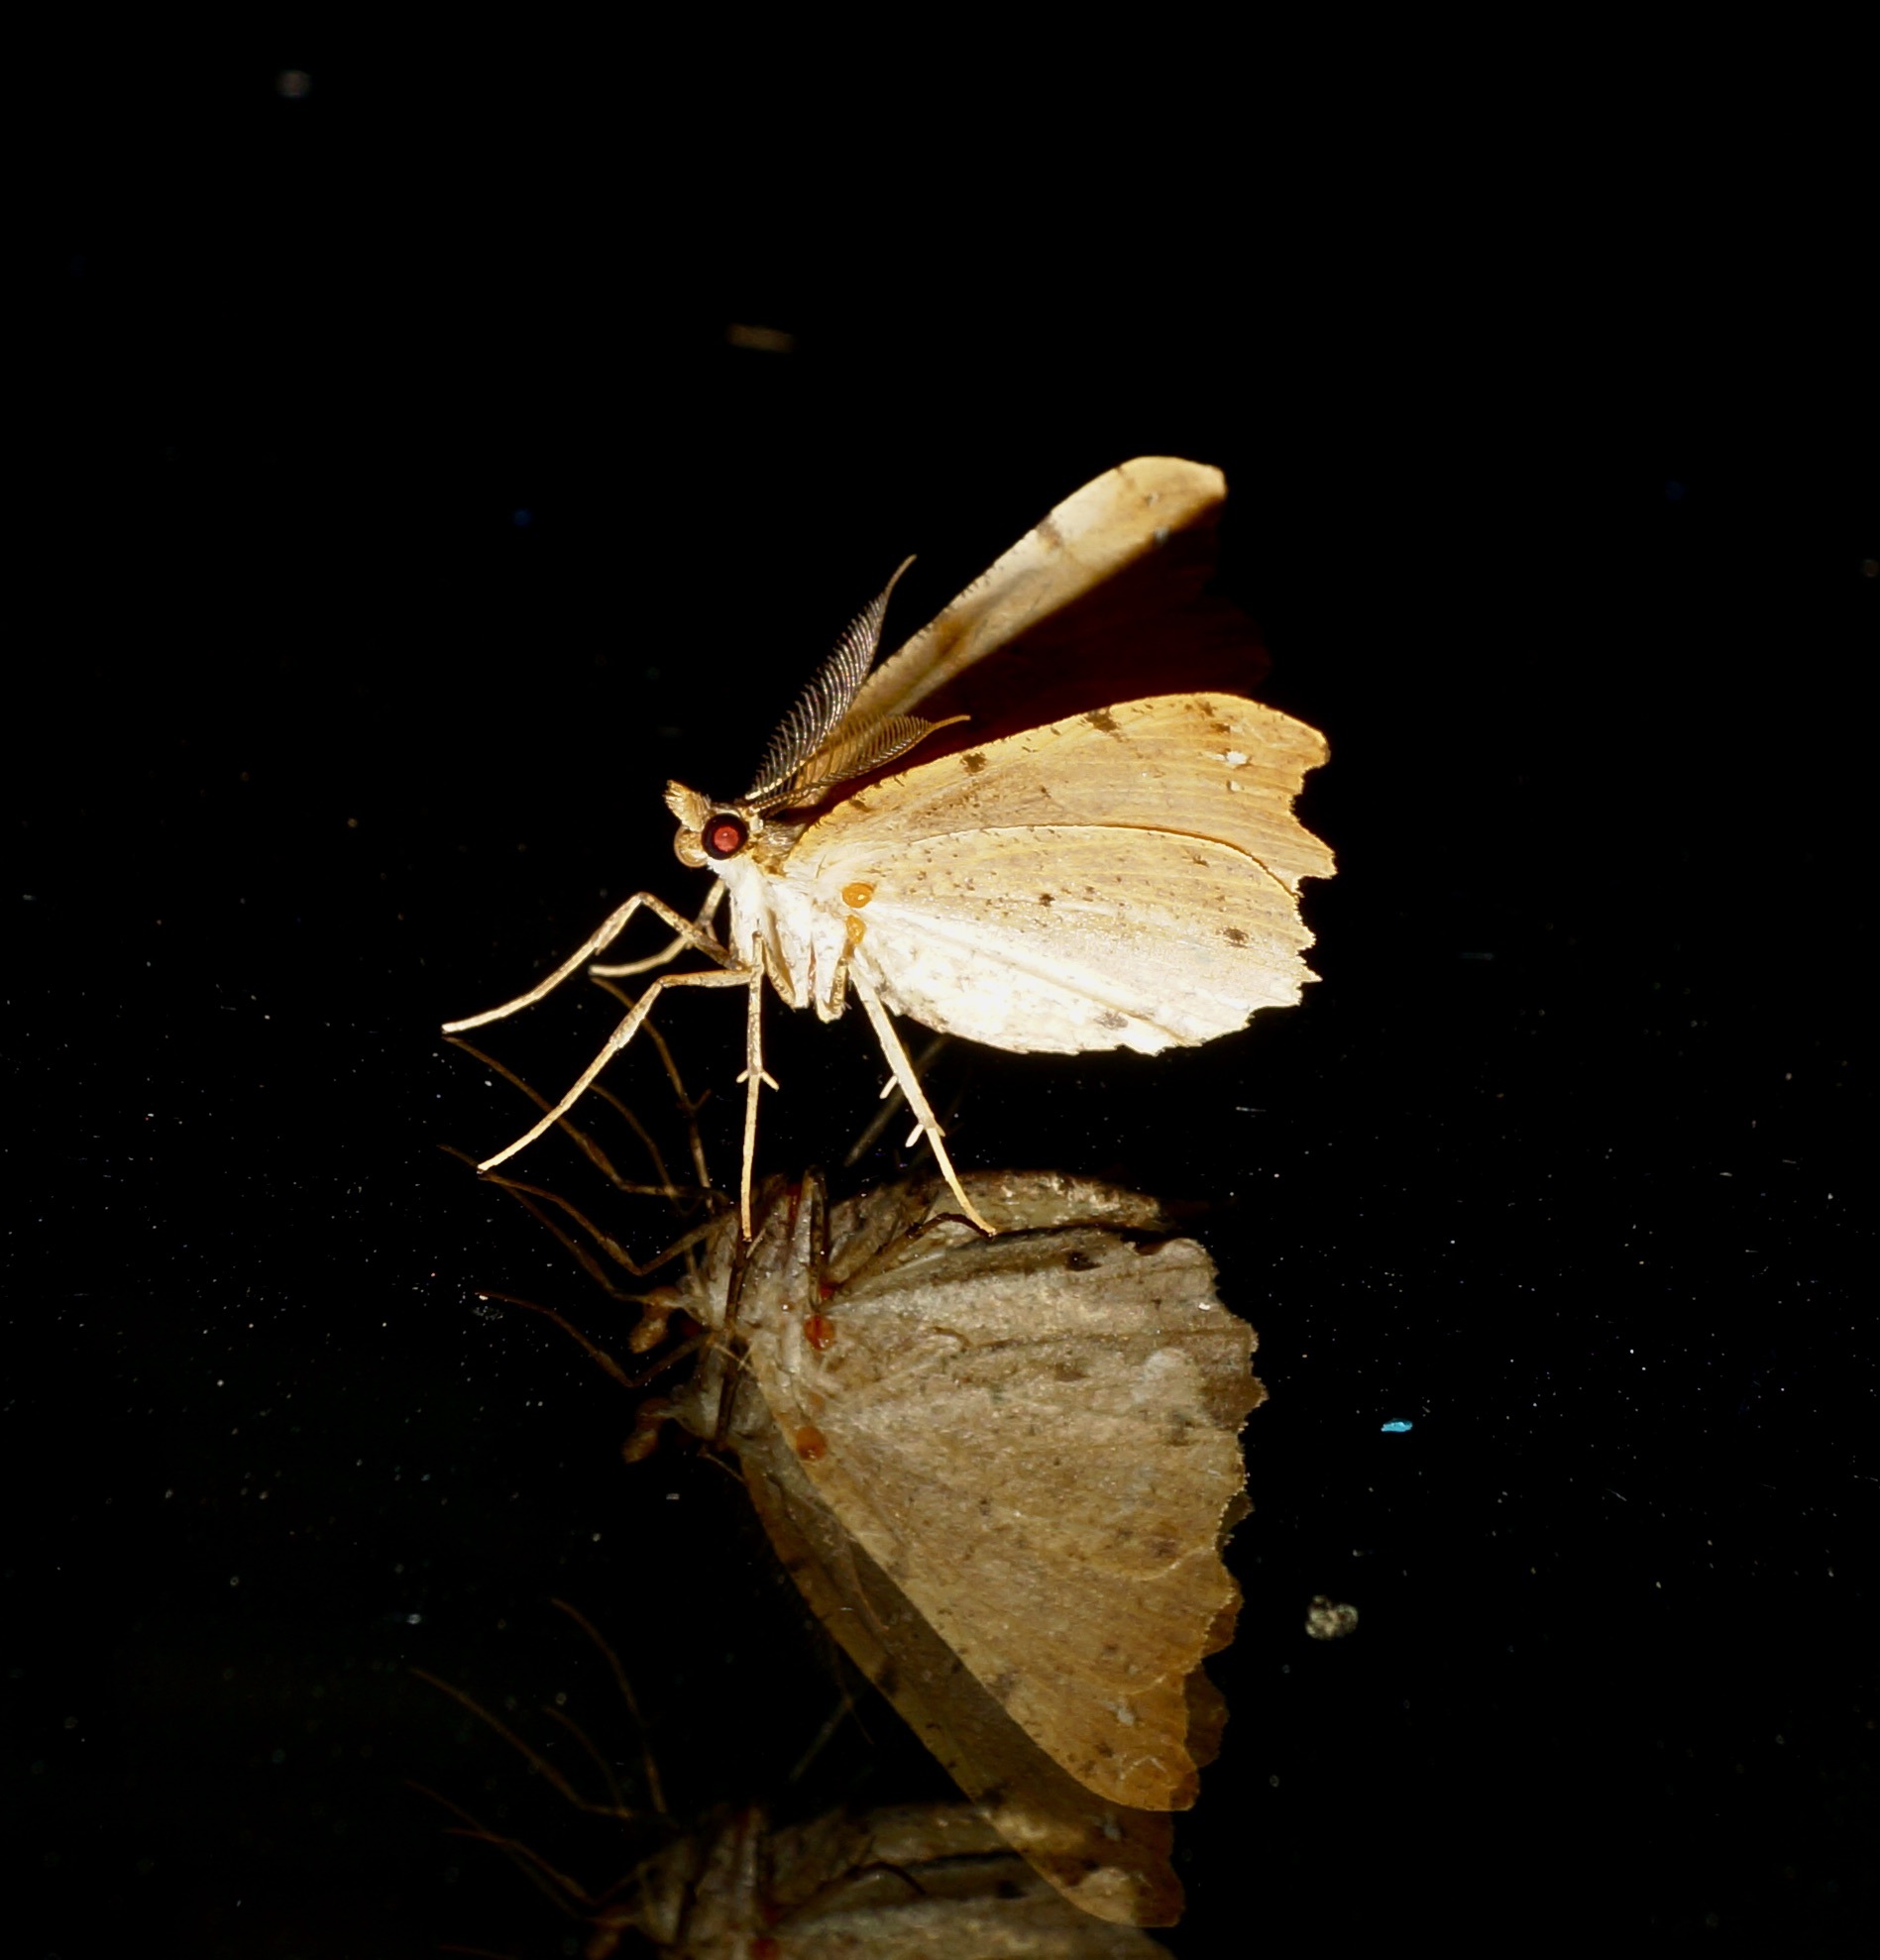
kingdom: Animalia
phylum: Arthropoda
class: Insecta
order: Lepidoptera
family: Geometridae
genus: Chalastra
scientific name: Chalastra pellurgata
